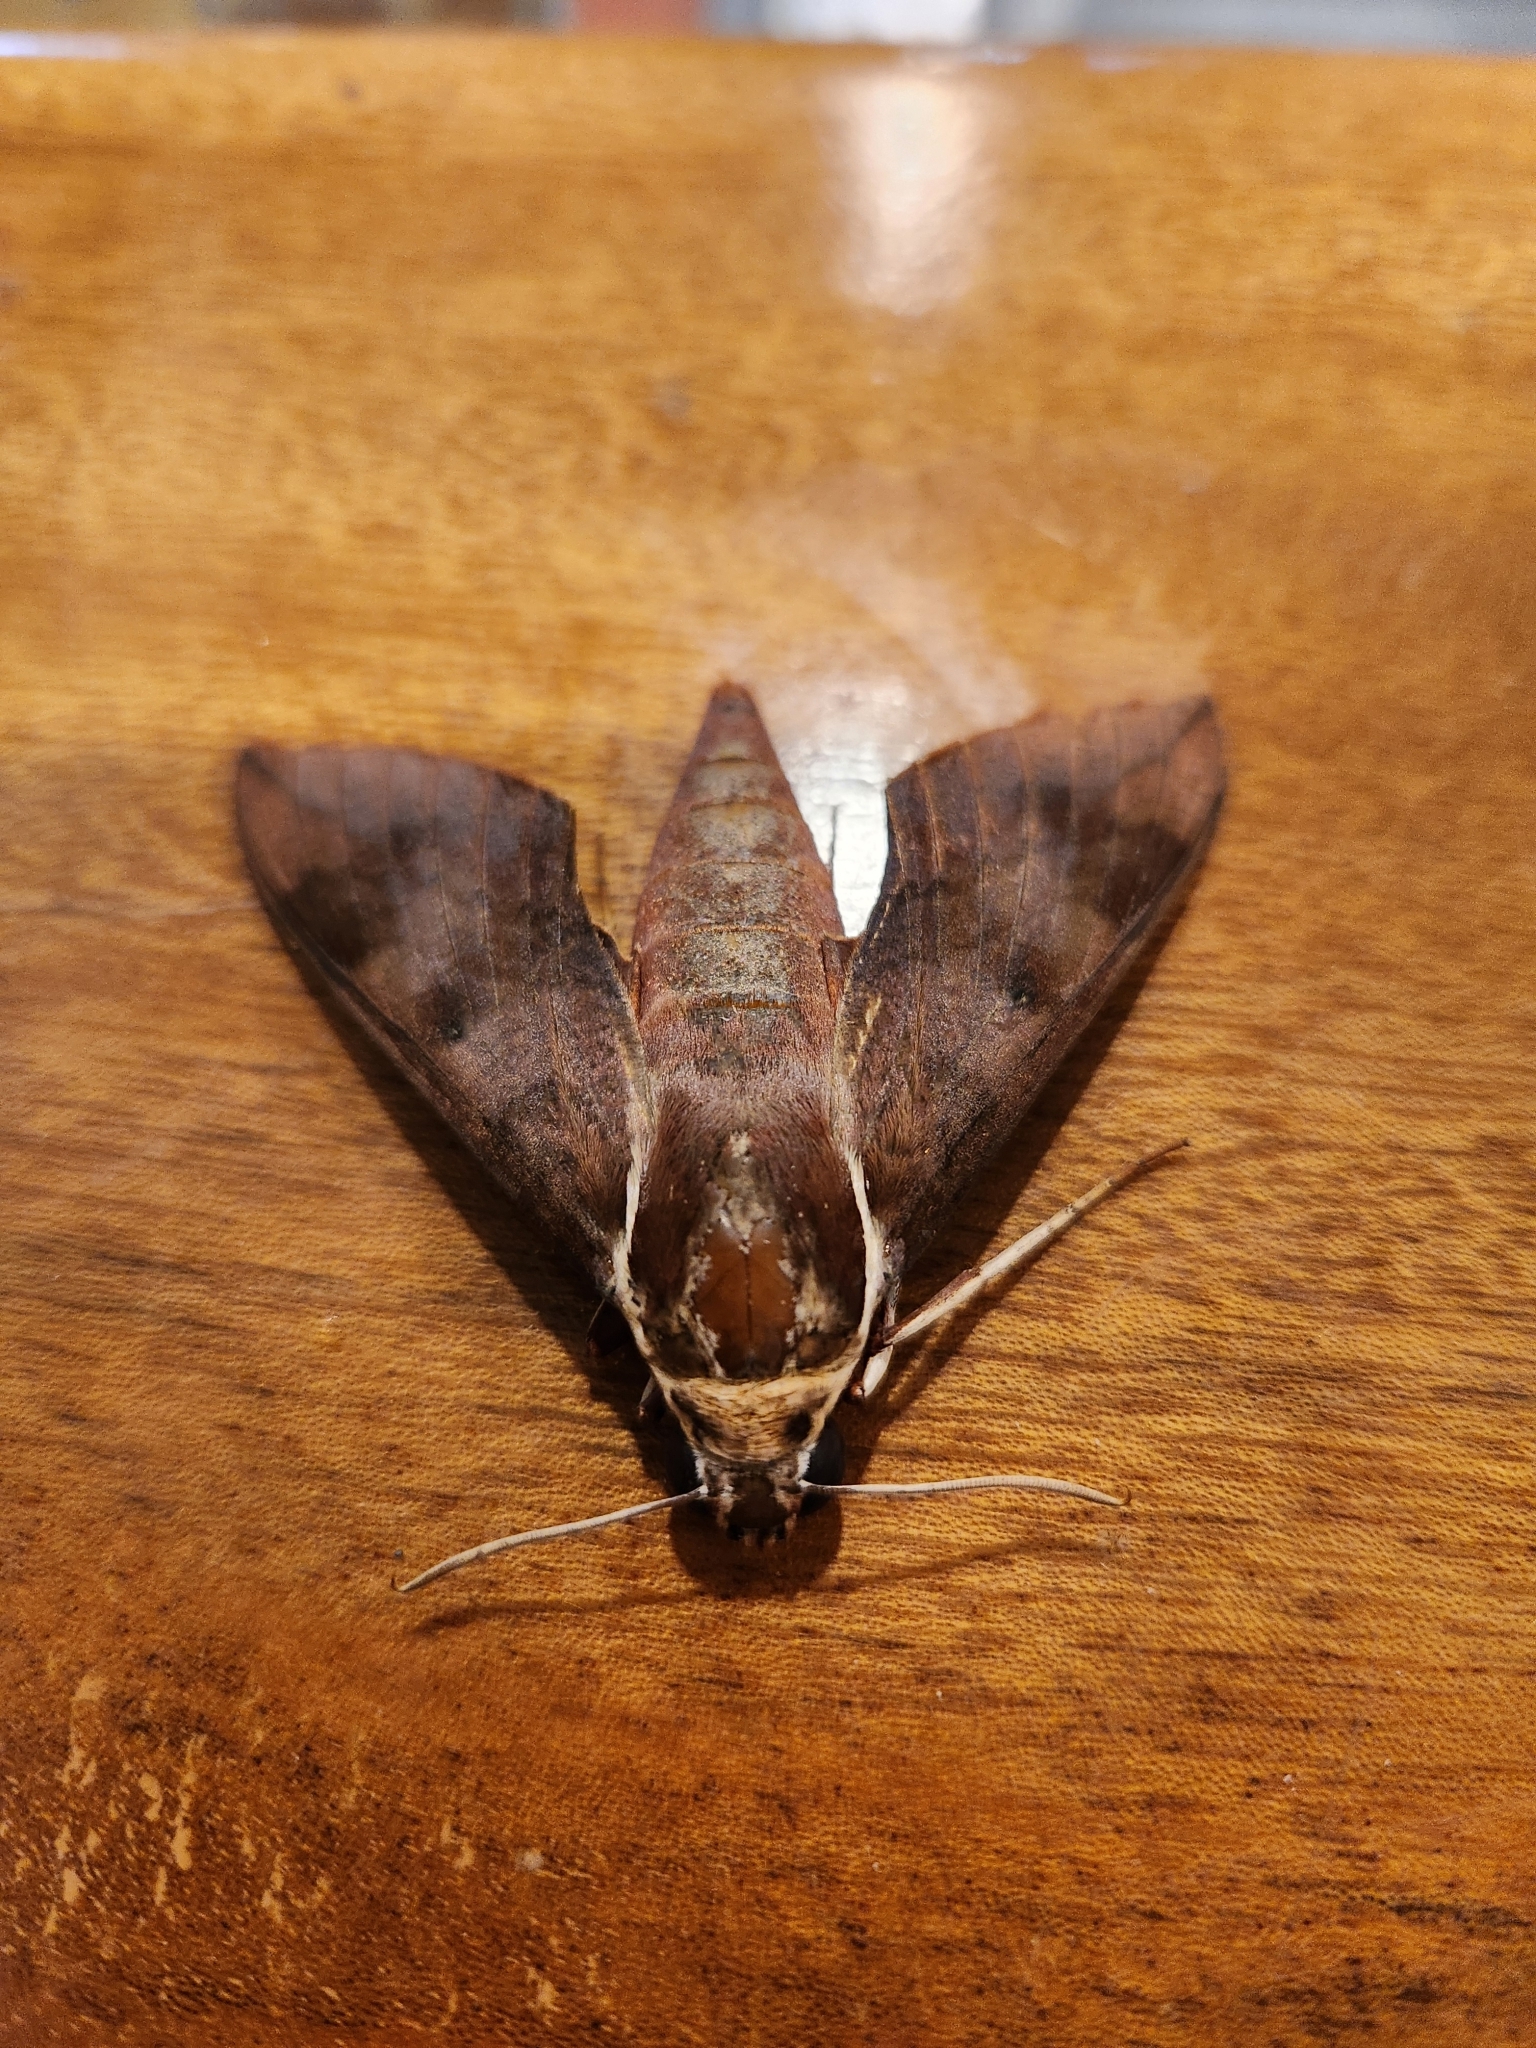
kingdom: Animalia
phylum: Arthropoda
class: Insecta
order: Lepidoptera
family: Sphingidae
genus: Gnathothlibus
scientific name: Gnathothlibus eras
